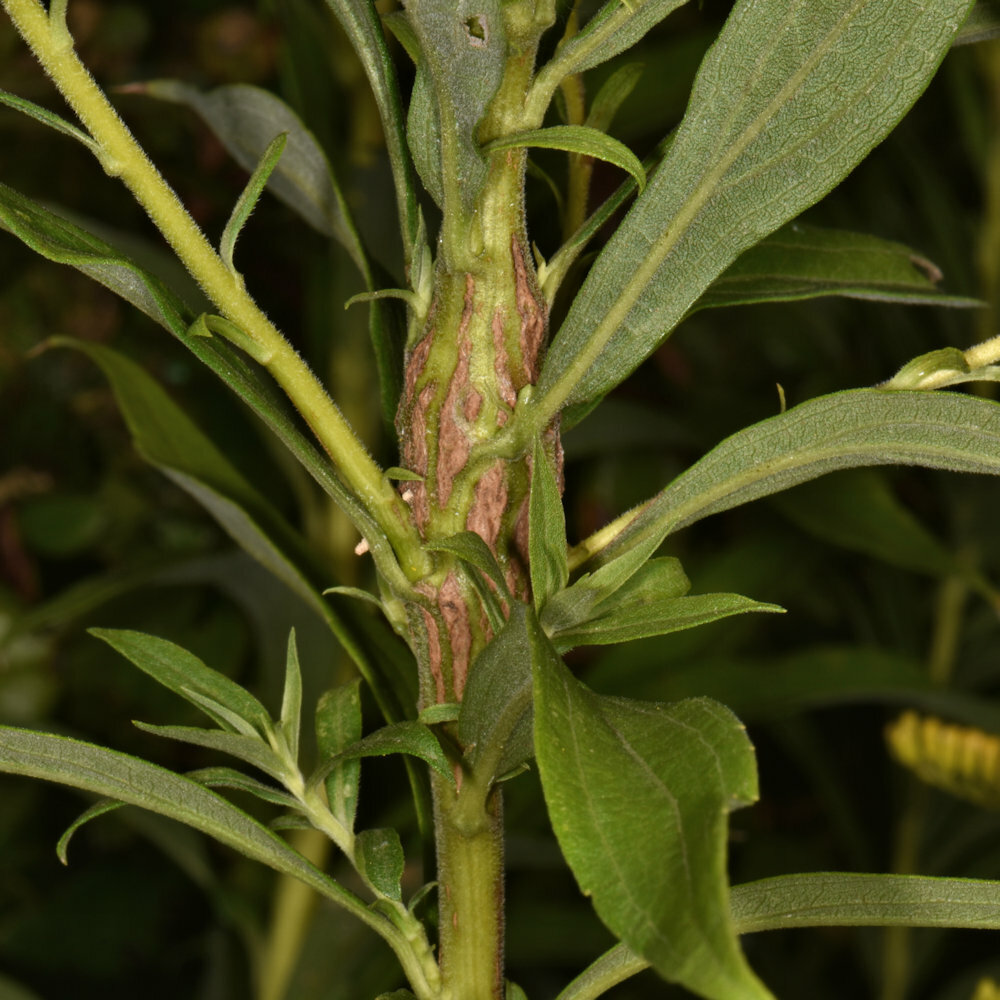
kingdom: Animalia
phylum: Arthropoda
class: Insecta
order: Lepidoptera
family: Tortricidae
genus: Epiblema
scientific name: Epiblema scudderiana
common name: Goldenrod gall moth
